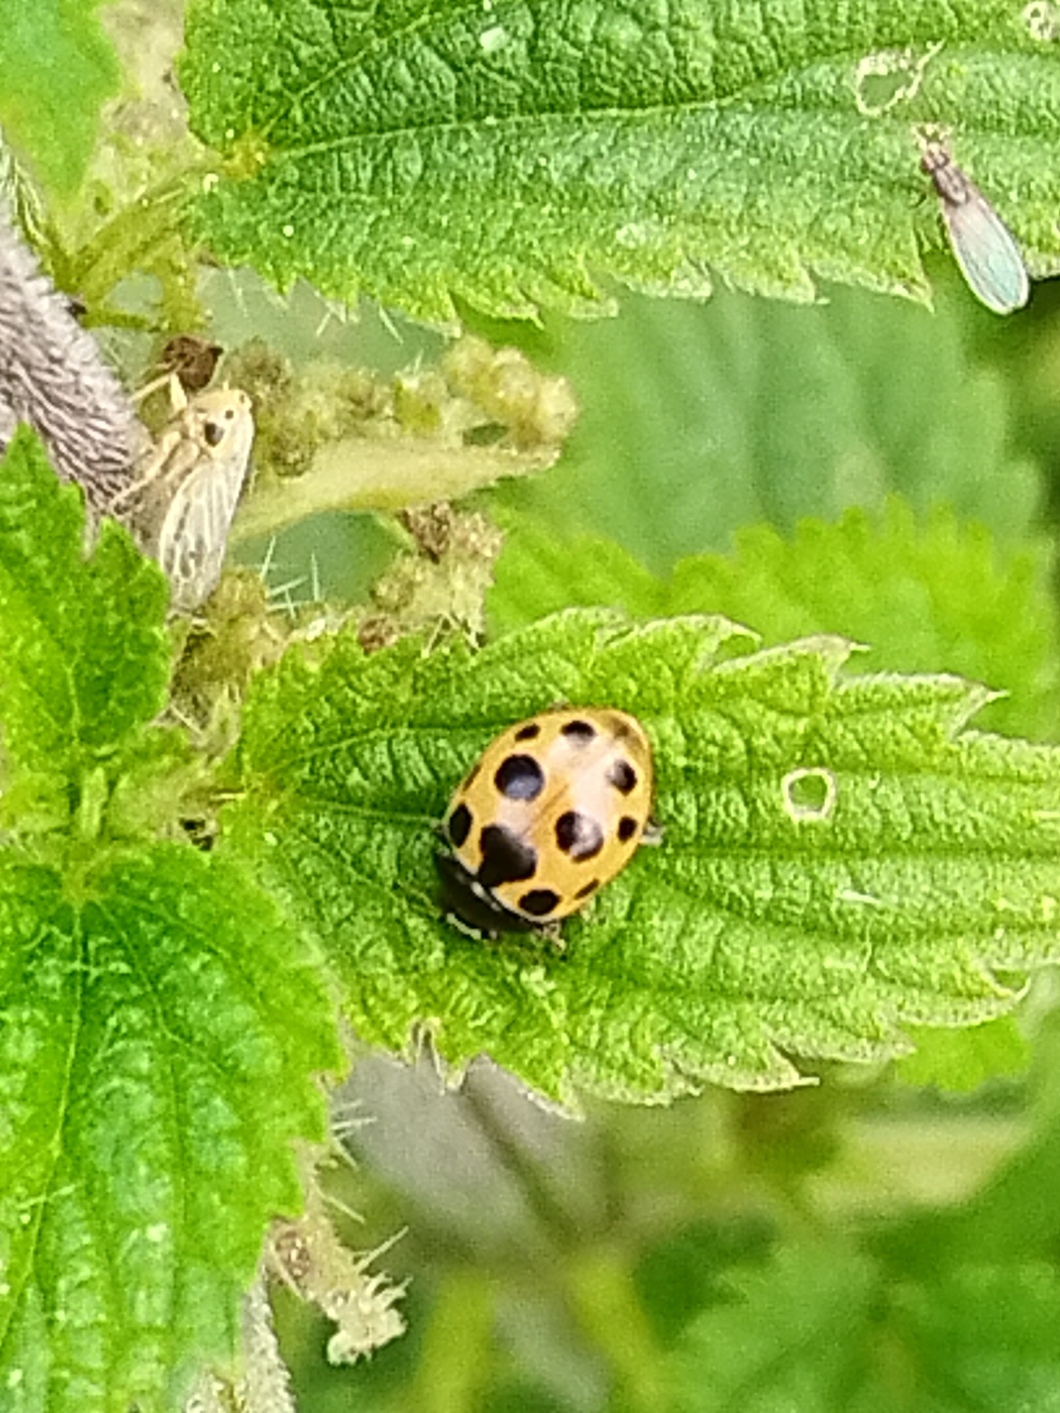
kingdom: Animalia
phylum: Arthropoda
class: Insecta
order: Coleoptera
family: Coccinellidae
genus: Ceratomegilla
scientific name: Ceratomegilla notata
